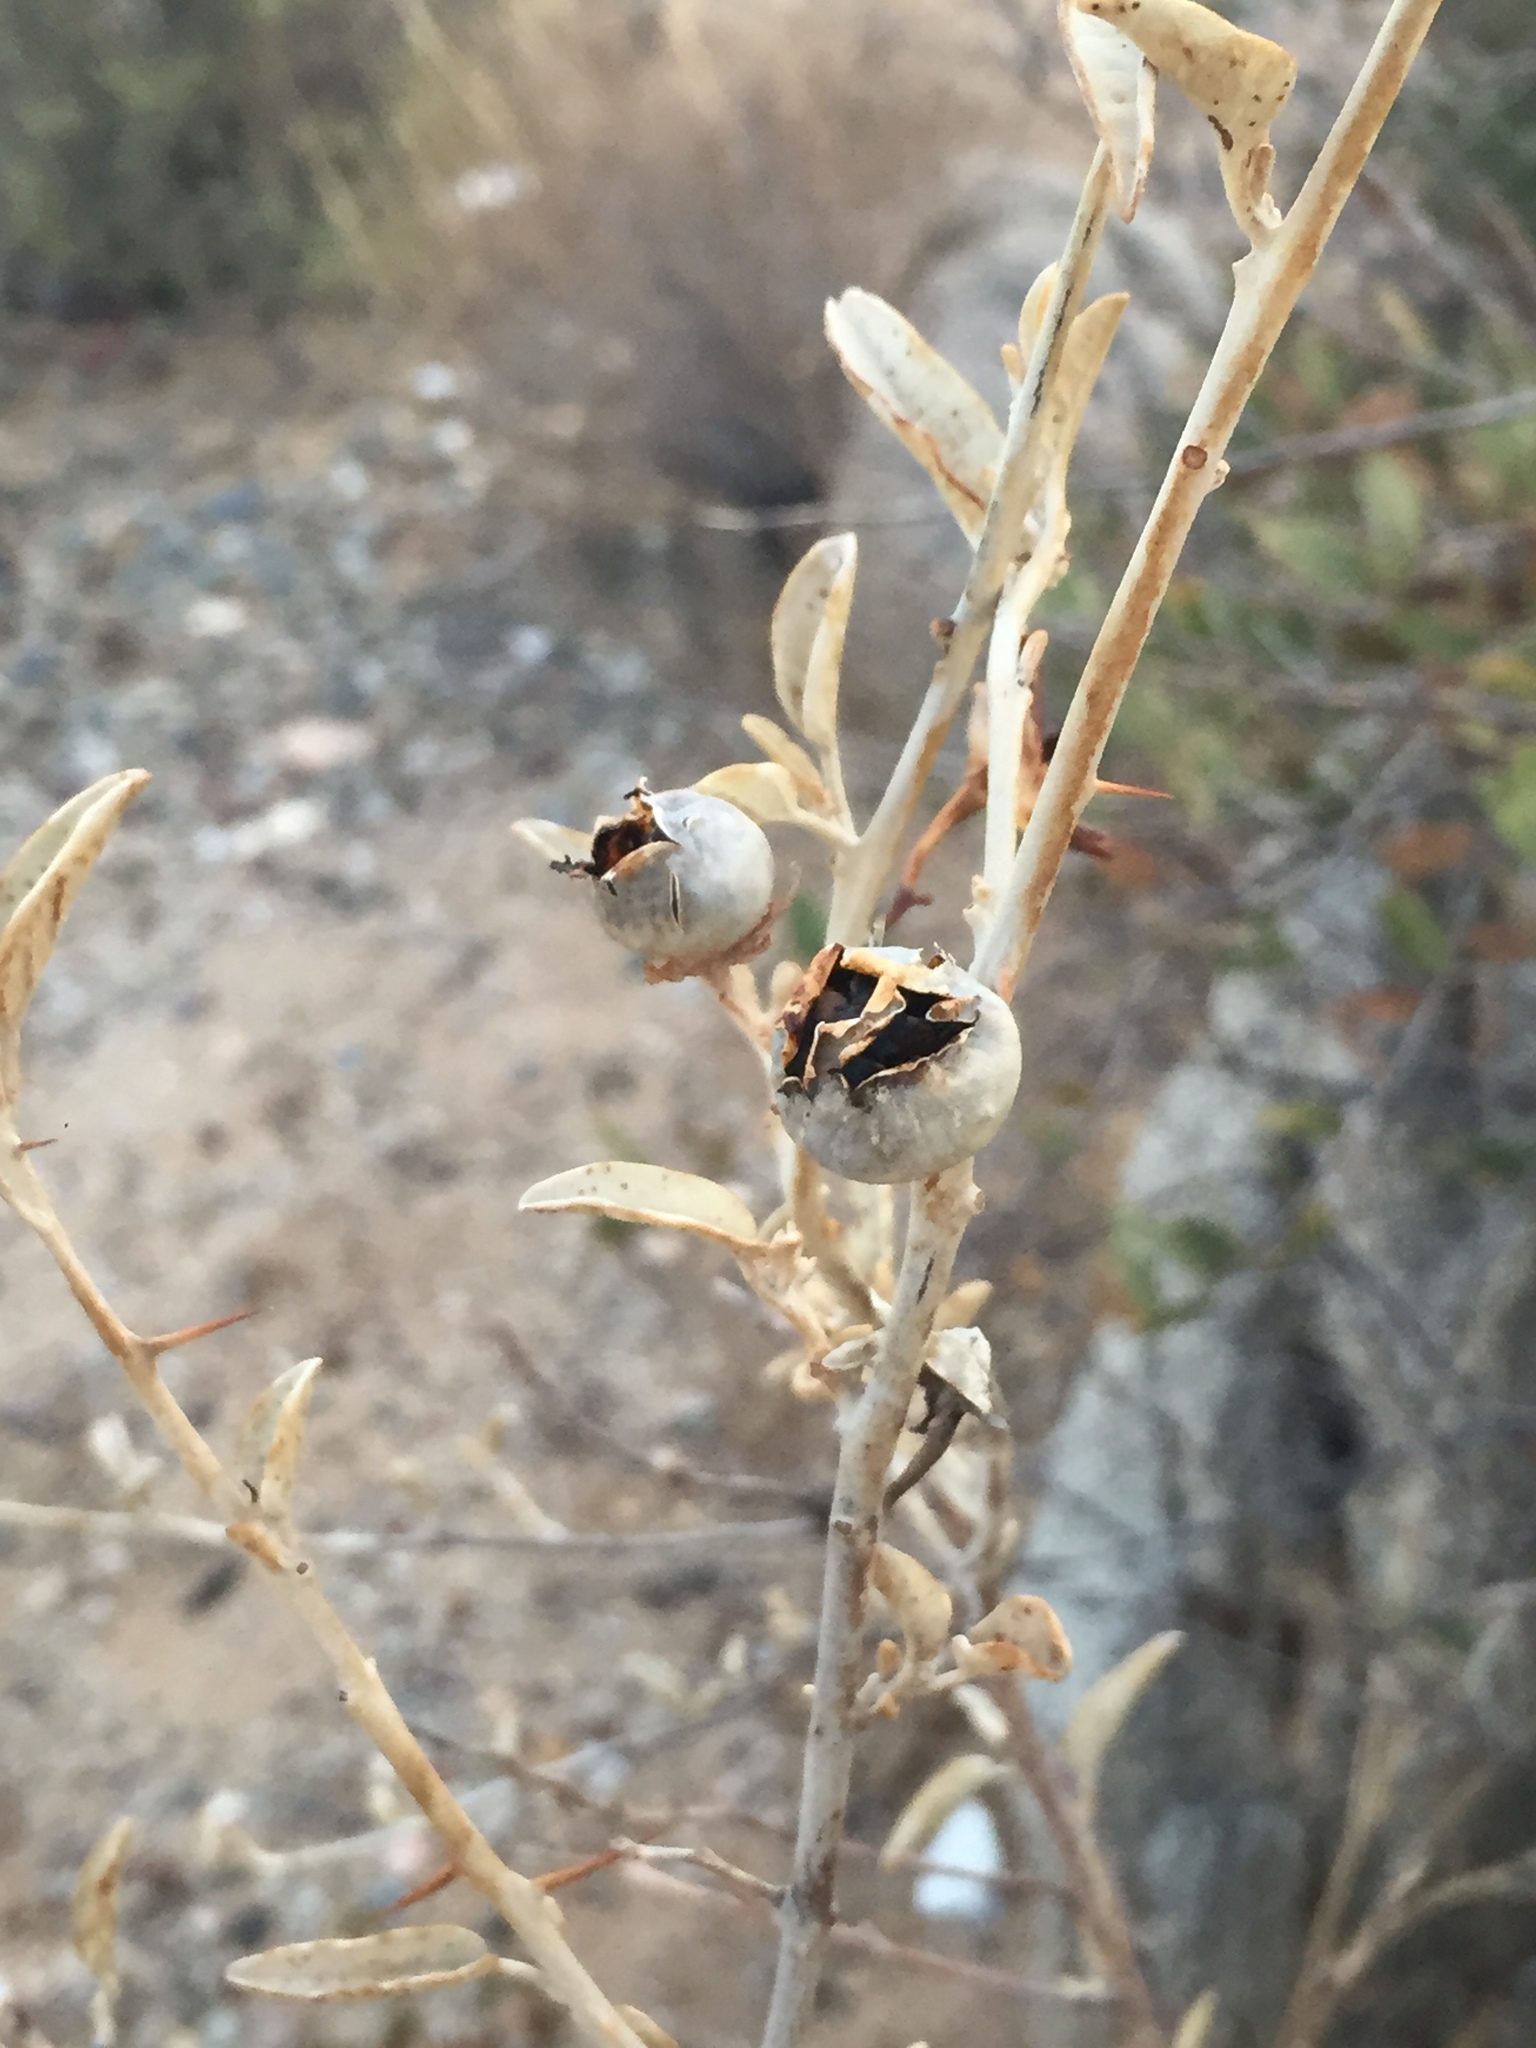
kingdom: Plantae
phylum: Tracheophyta
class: Magnoliopsida
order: Solanales
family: Solanaceae
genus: Solanum
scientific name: Solanum hindsianum
